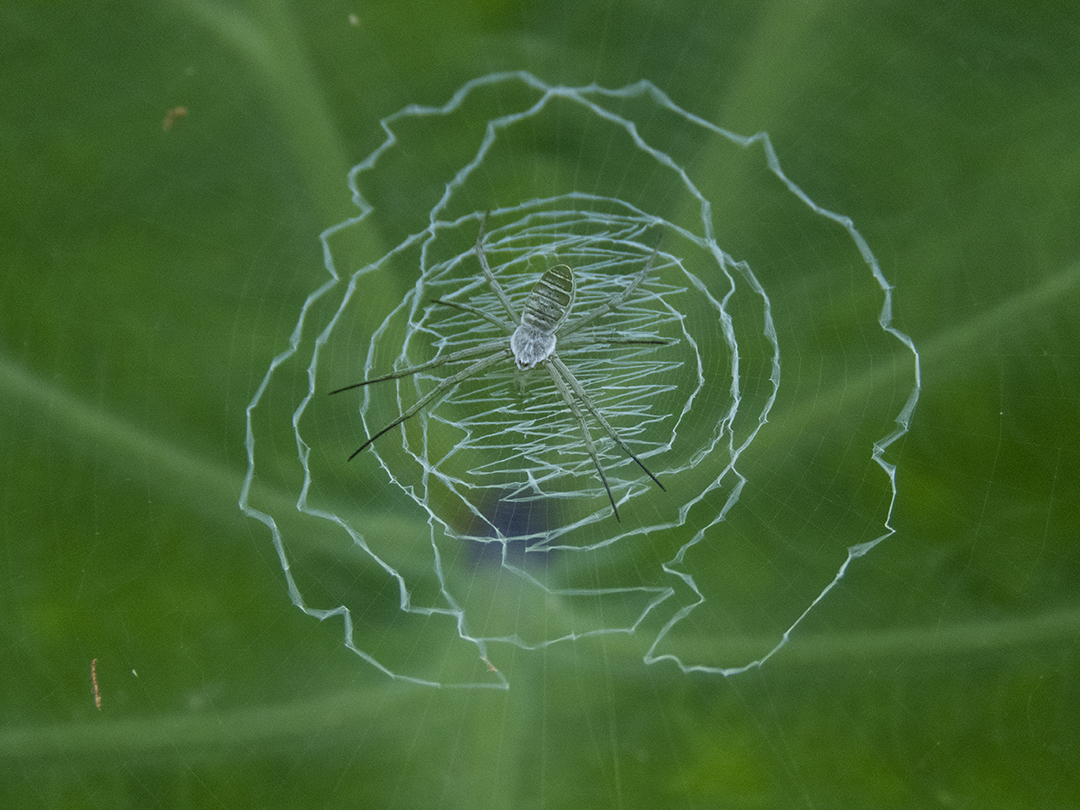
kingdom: Animalia
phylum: Arthropoda
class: Arachnida
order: Araneae
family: Araneidae
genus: Argiope
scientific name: Argiope chloreides
